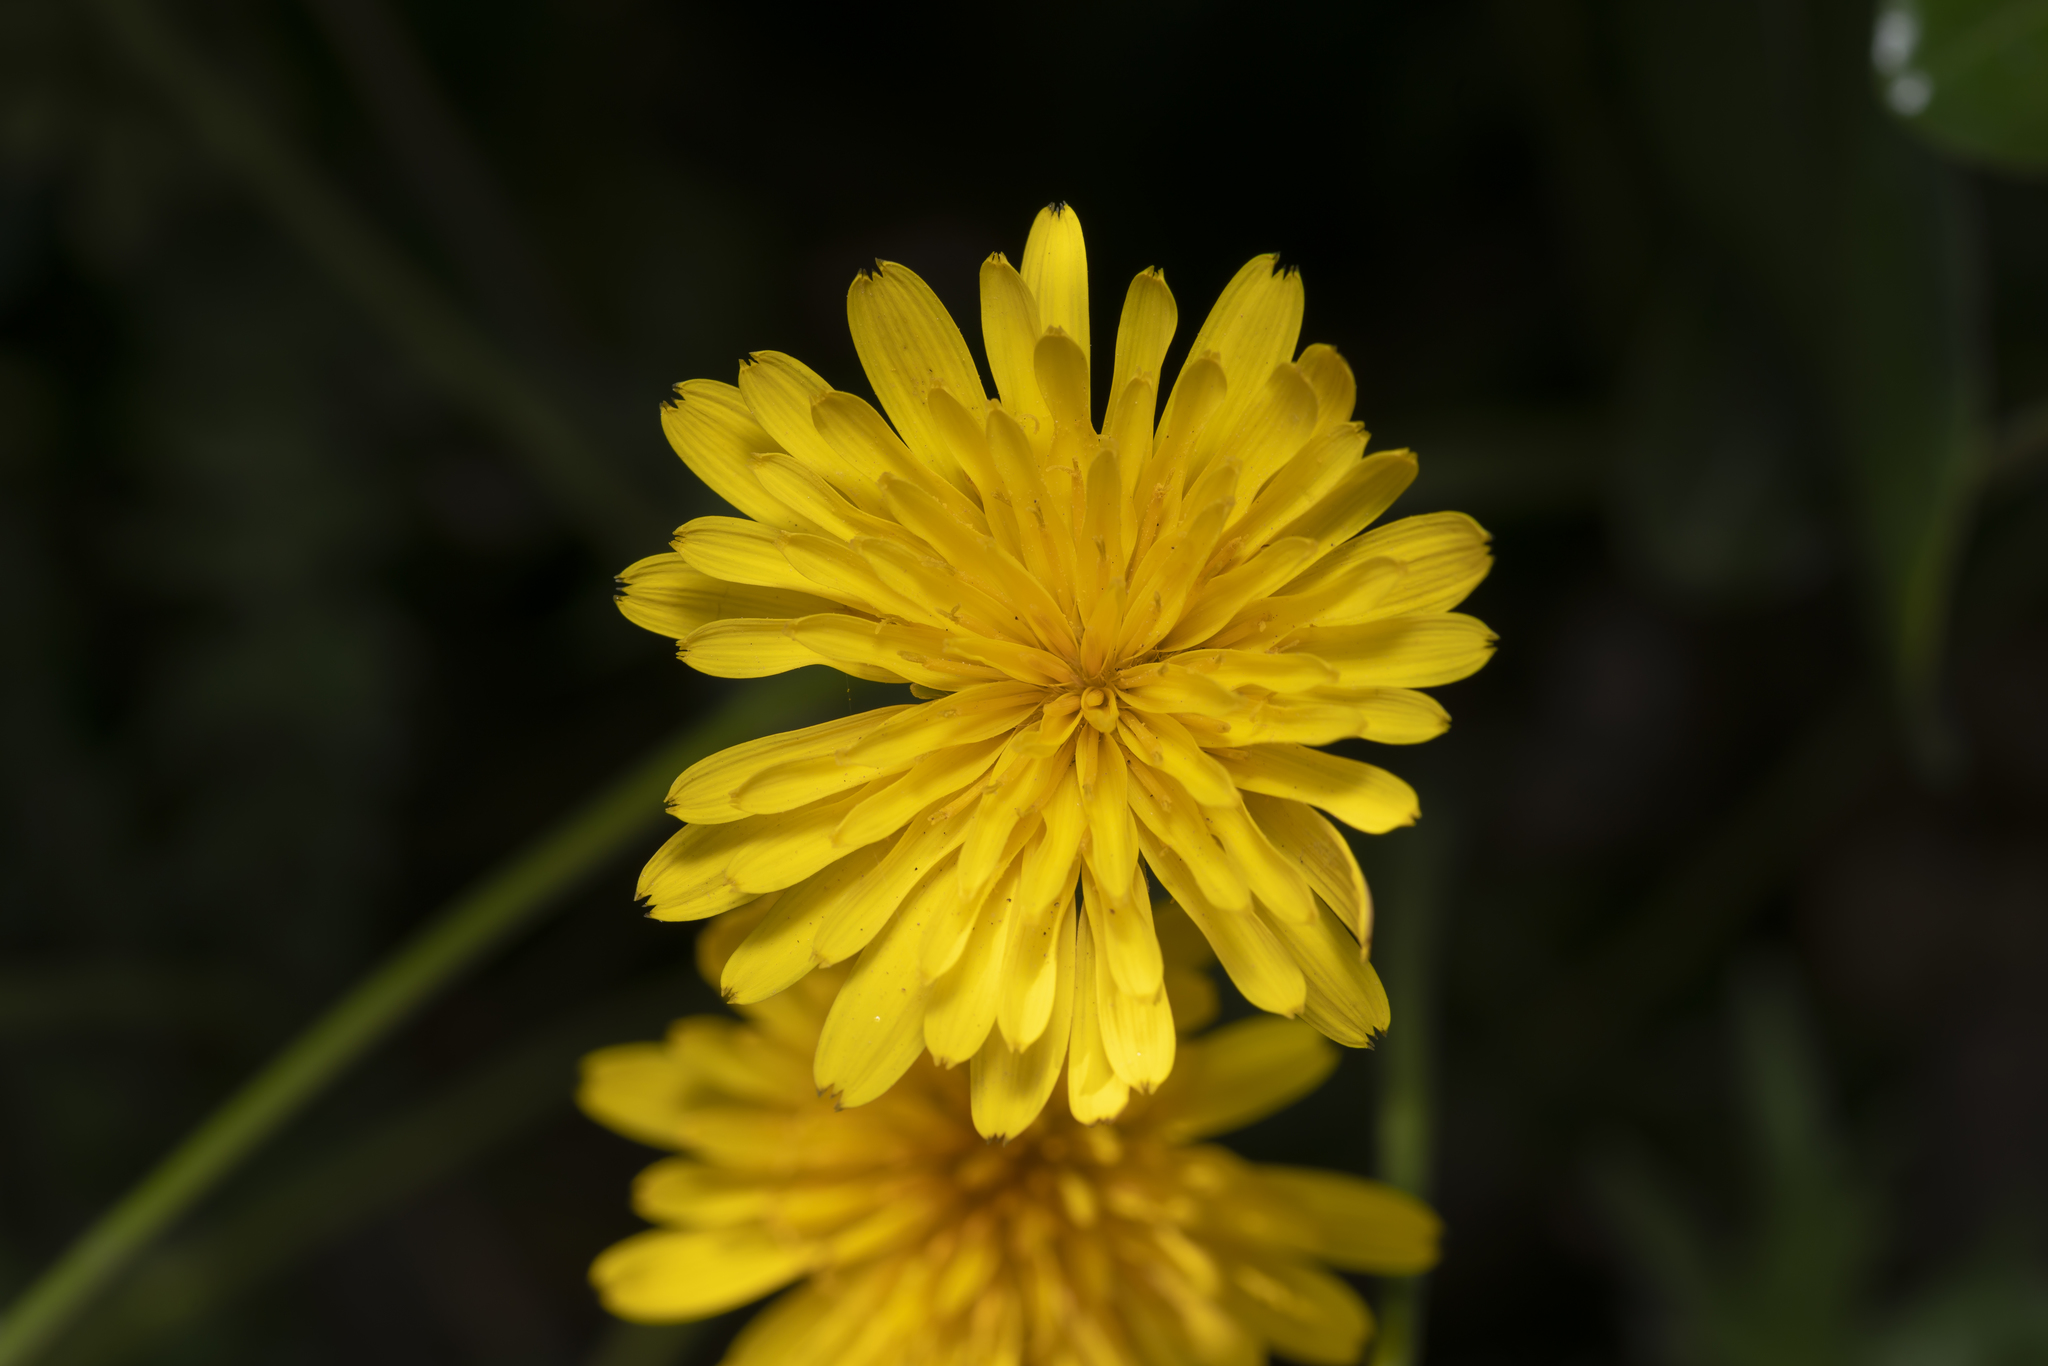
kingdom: Plantae
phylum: Tracheophyta
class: Magnoliopsida
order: Asterales
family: Asteraceae
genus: Hyoseris
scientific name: Hyoseris radiata
